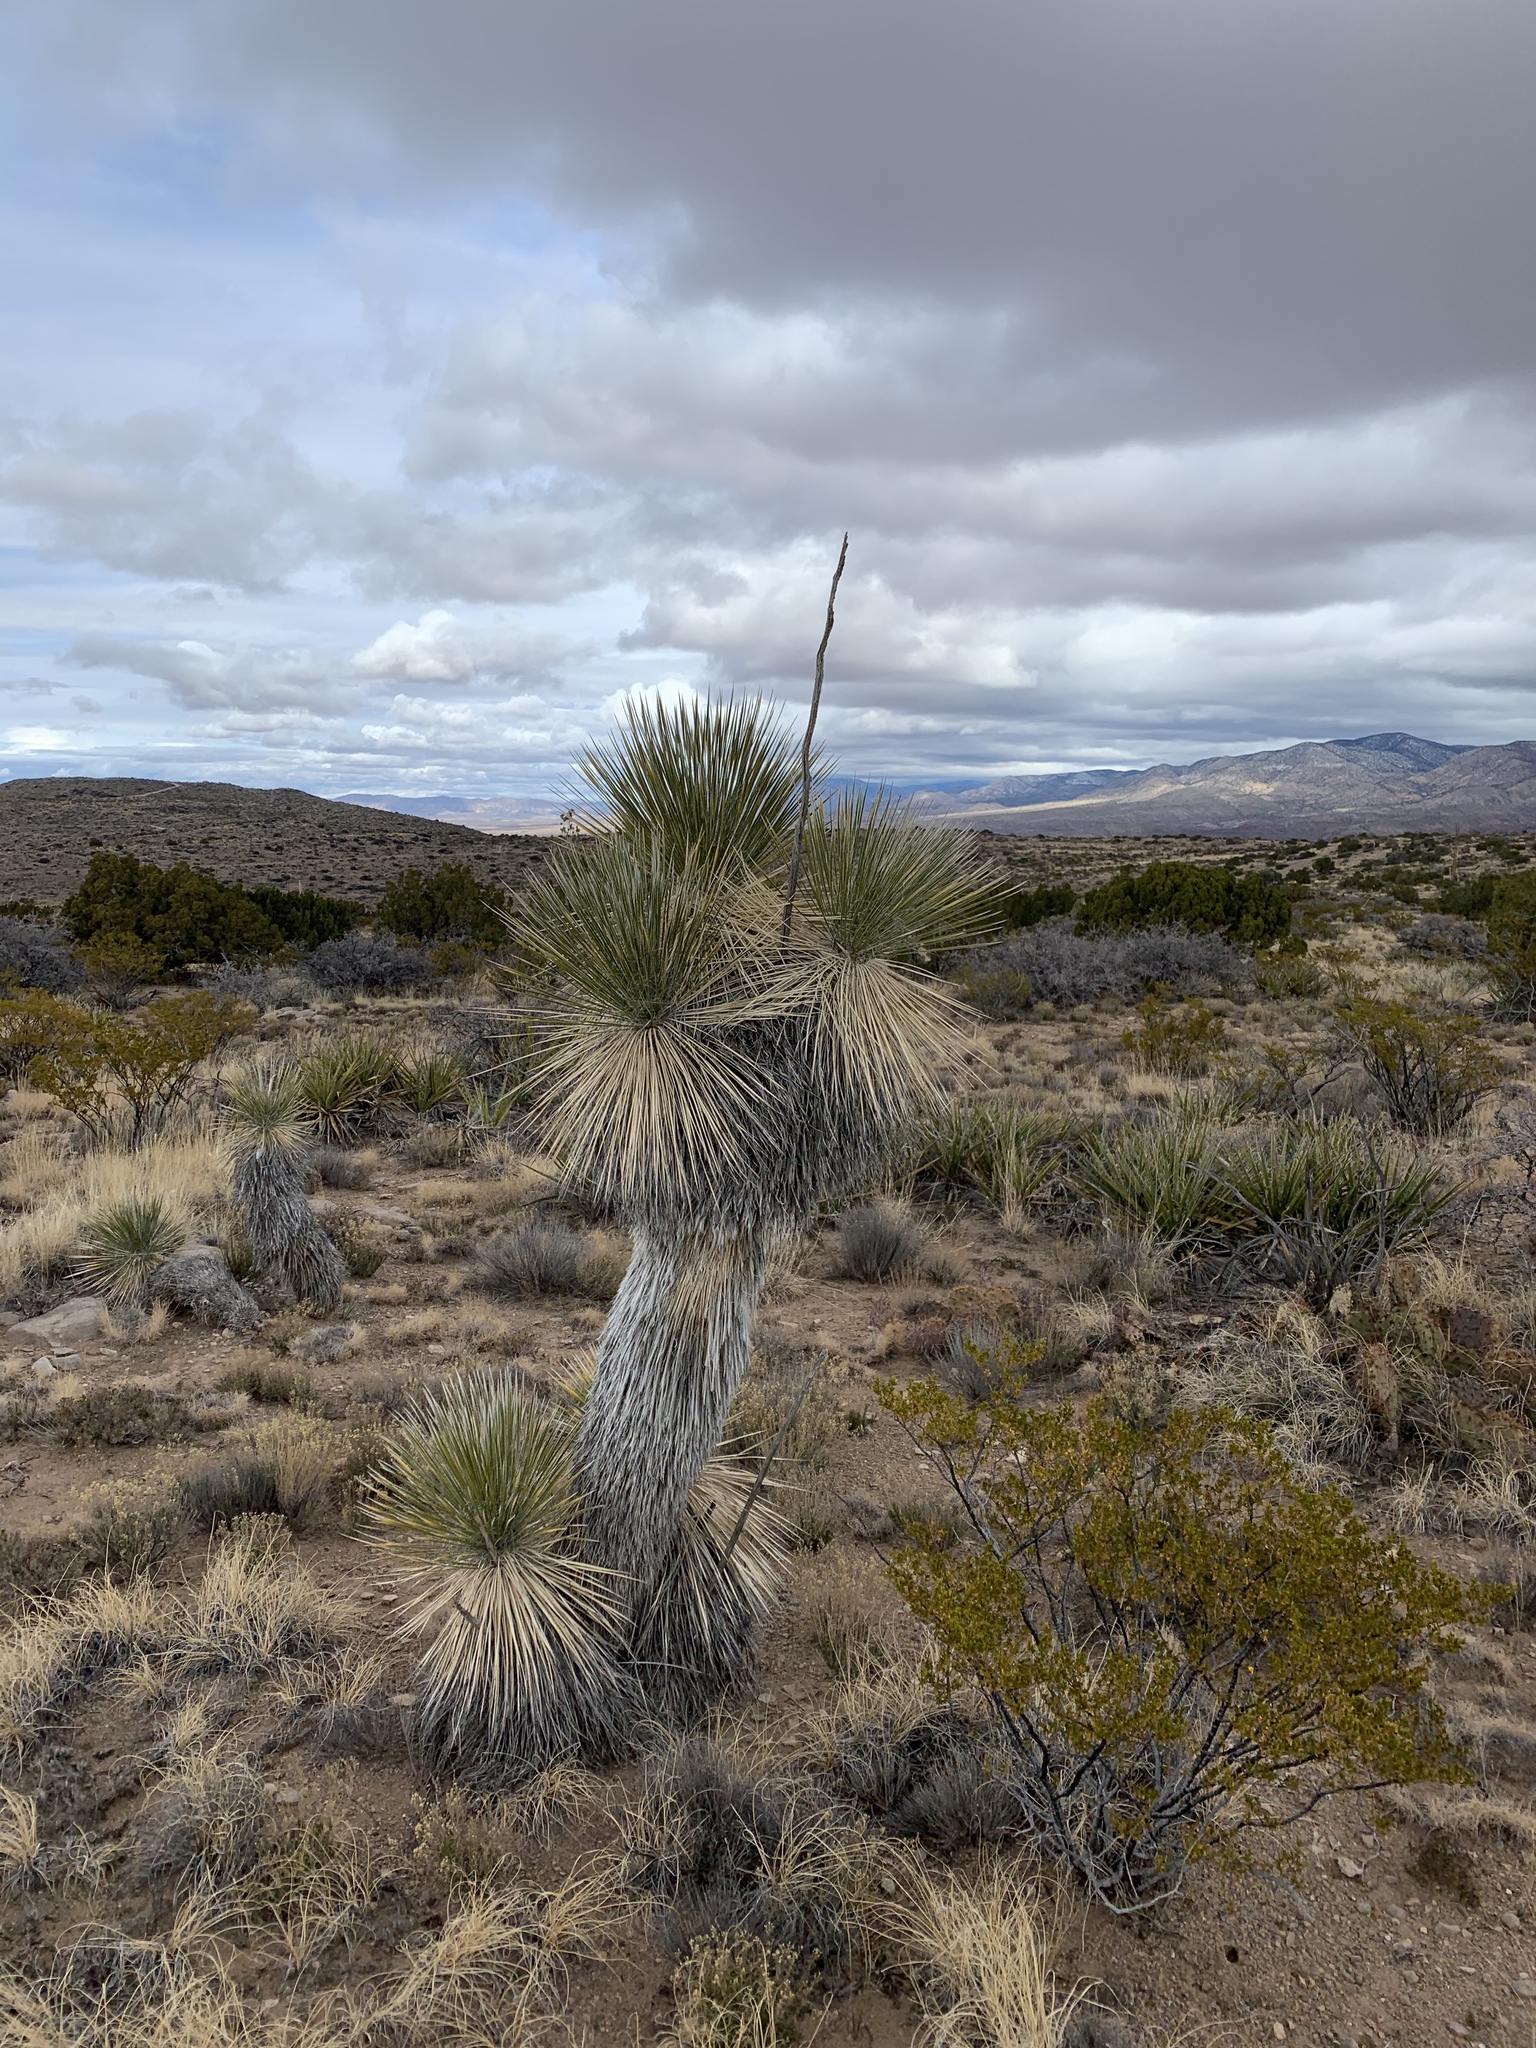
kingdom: Plantae
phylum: Tracheophyta
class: Liliopsida
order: Asparagales
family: Asparagaceae
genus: Yucca
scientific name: Yucca elata
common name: Palmella
